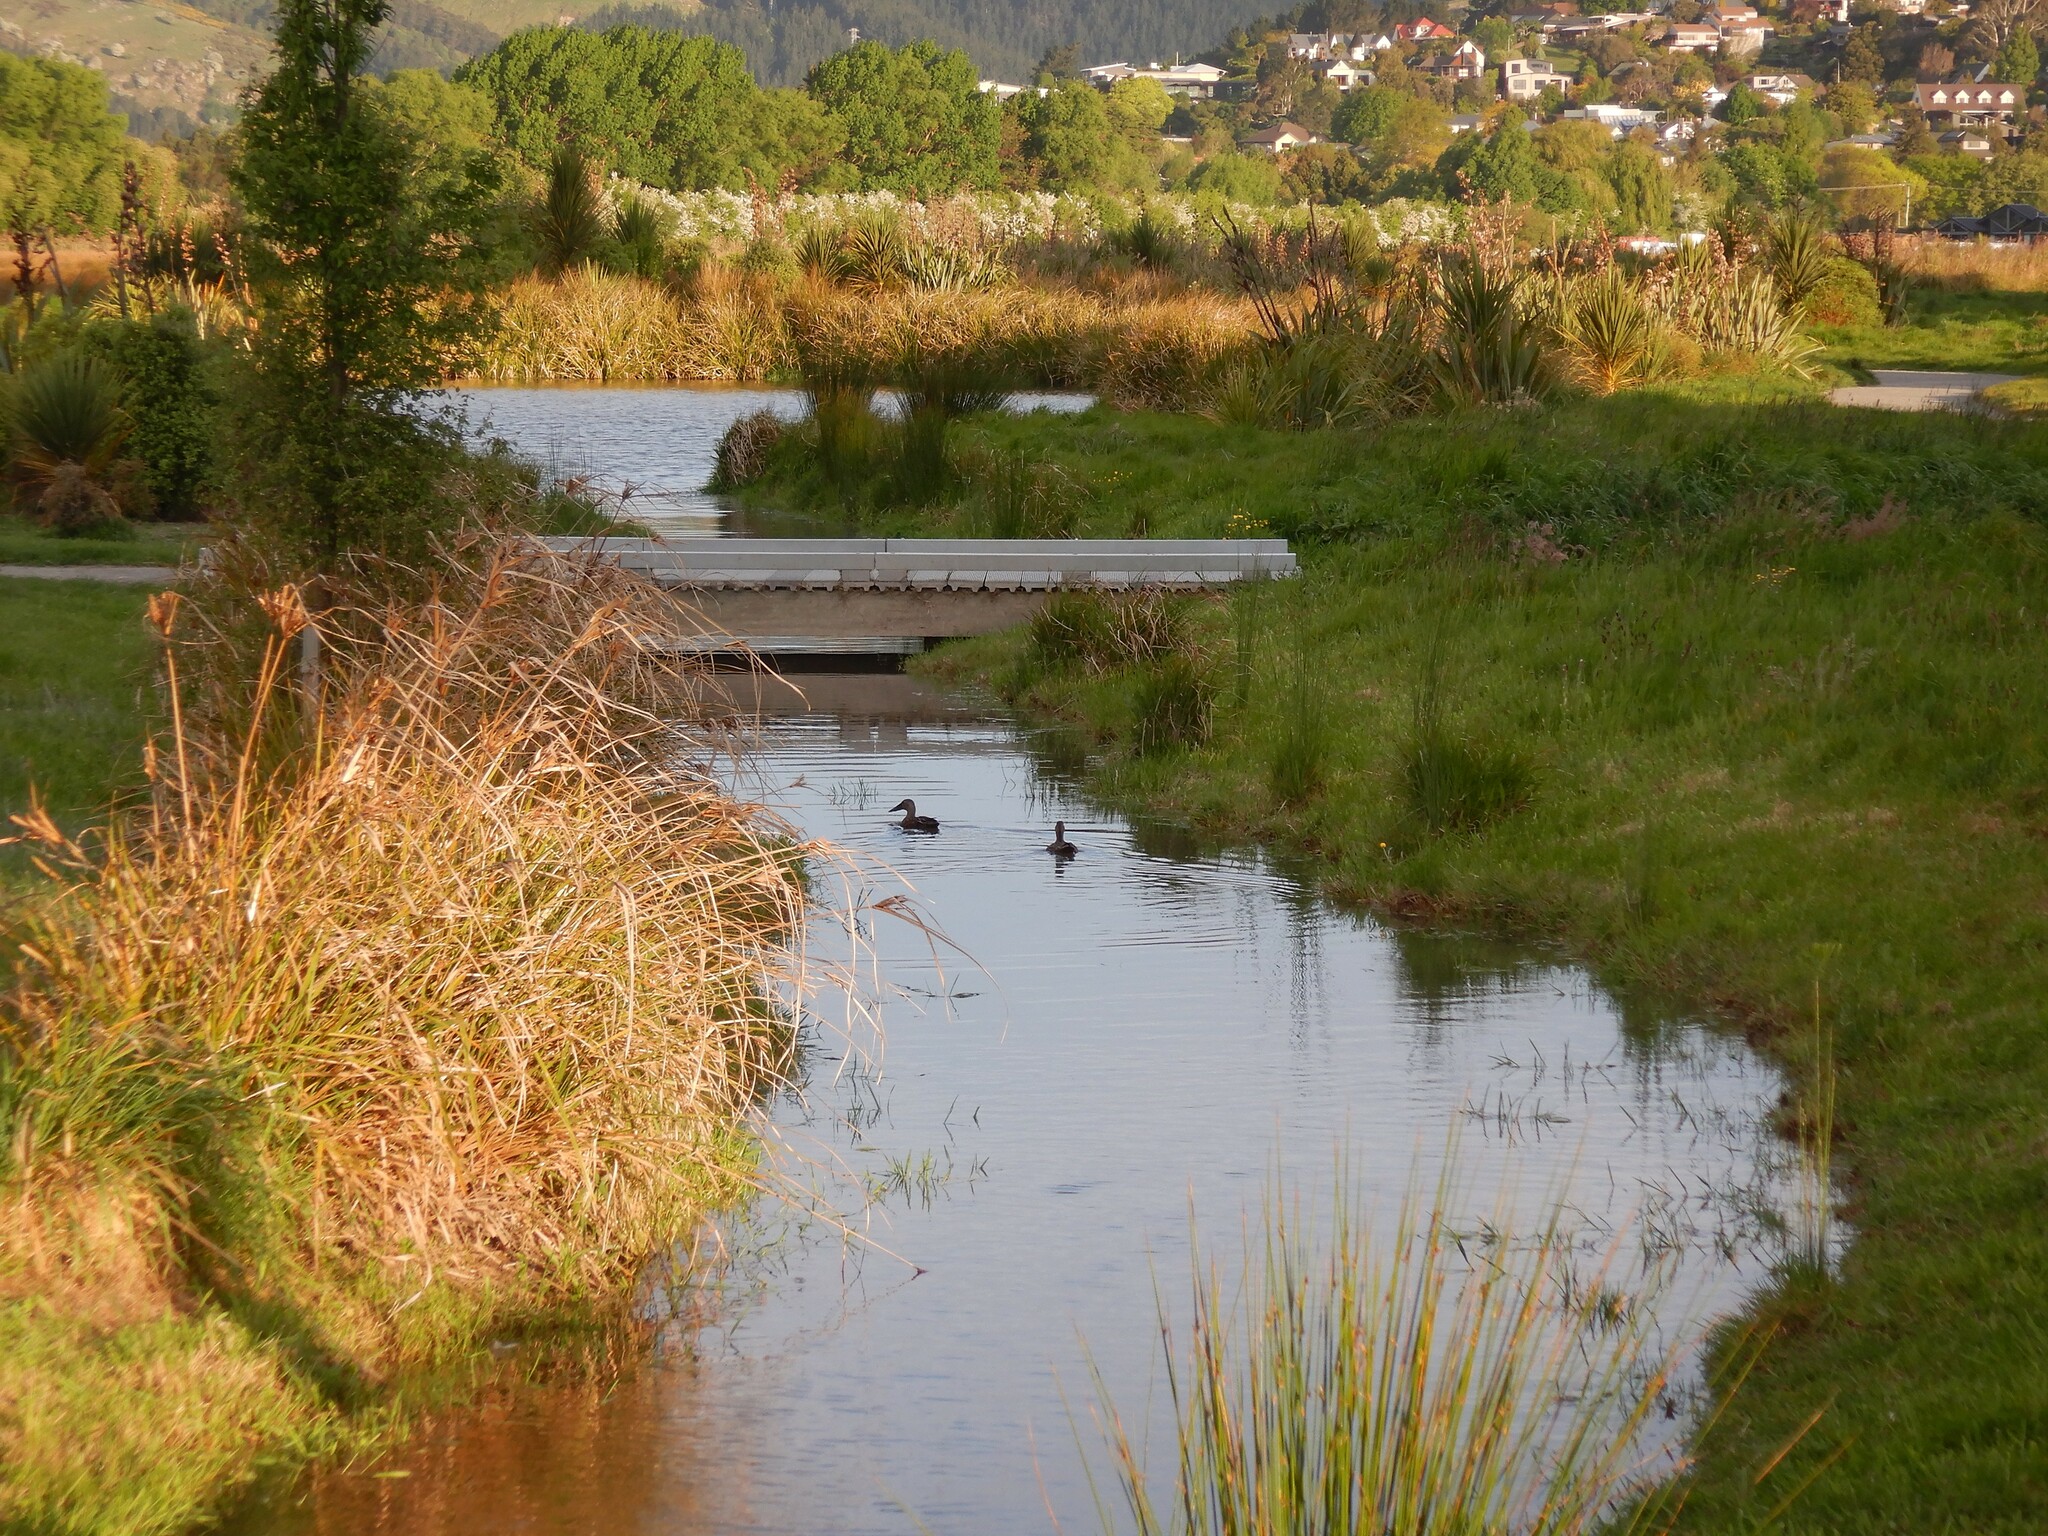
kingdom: Animalia
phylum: Chordata
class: Aves
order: Anseriformes
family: Anatidae
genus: Spatula
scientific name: Spatula rhynchotis
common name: Australian shoveler
